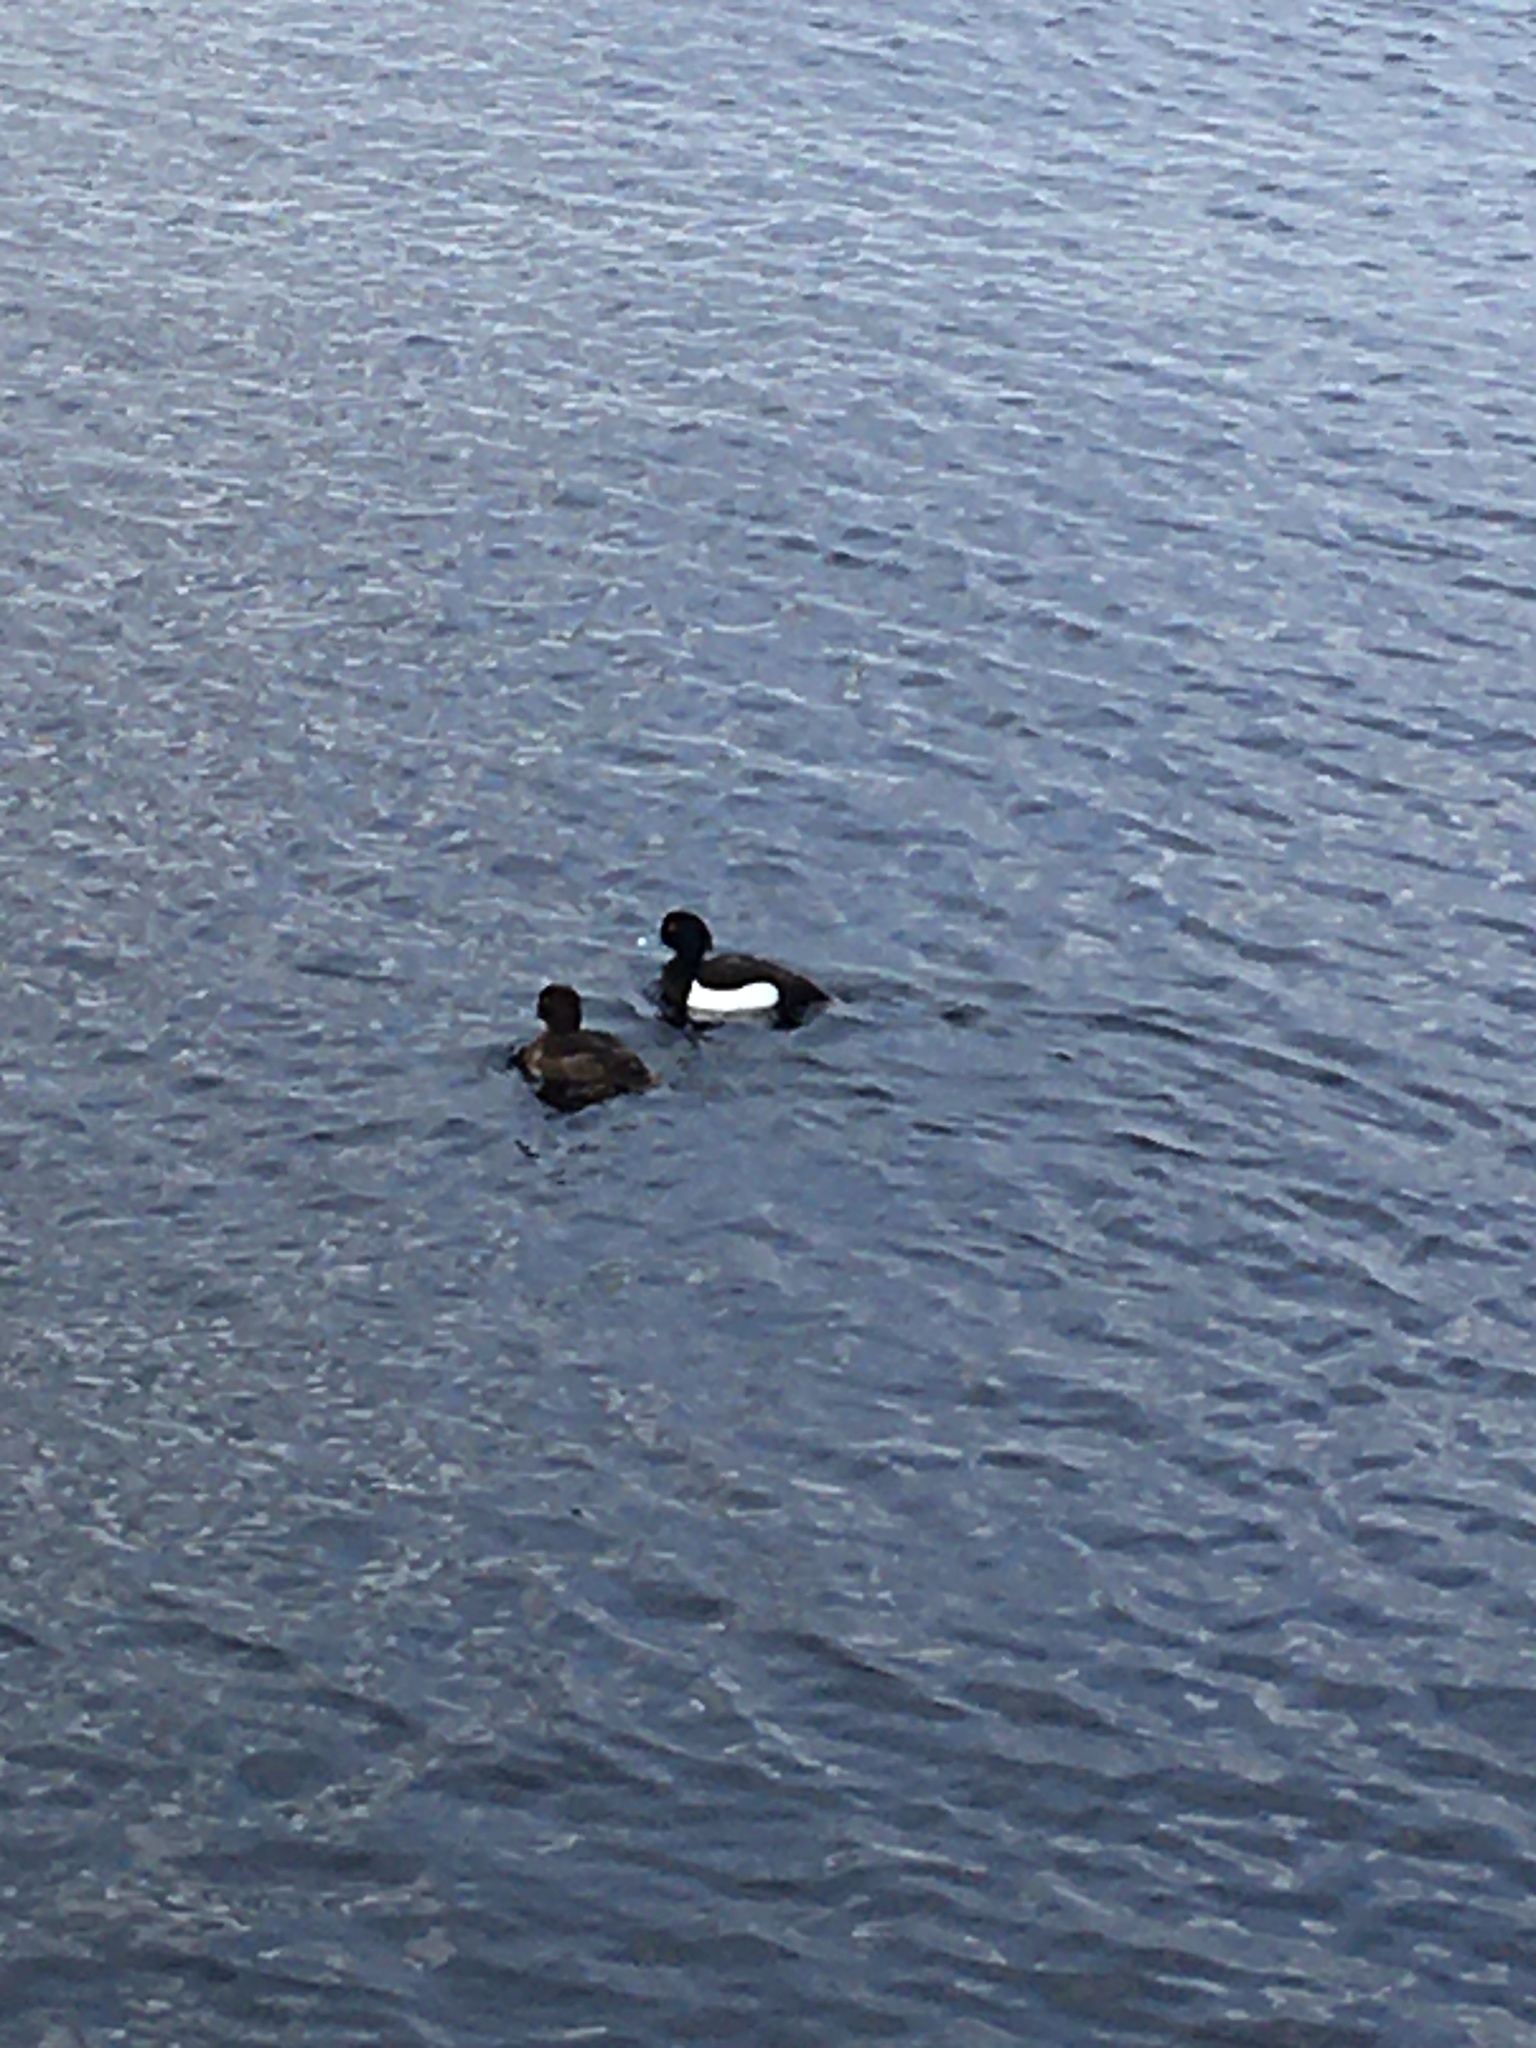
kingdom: Animalia
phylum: Chordata
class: Aves
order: Anseriformes
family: Anatidae
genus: Aythya
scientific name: Aythya fuligula
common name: Tufted duck
